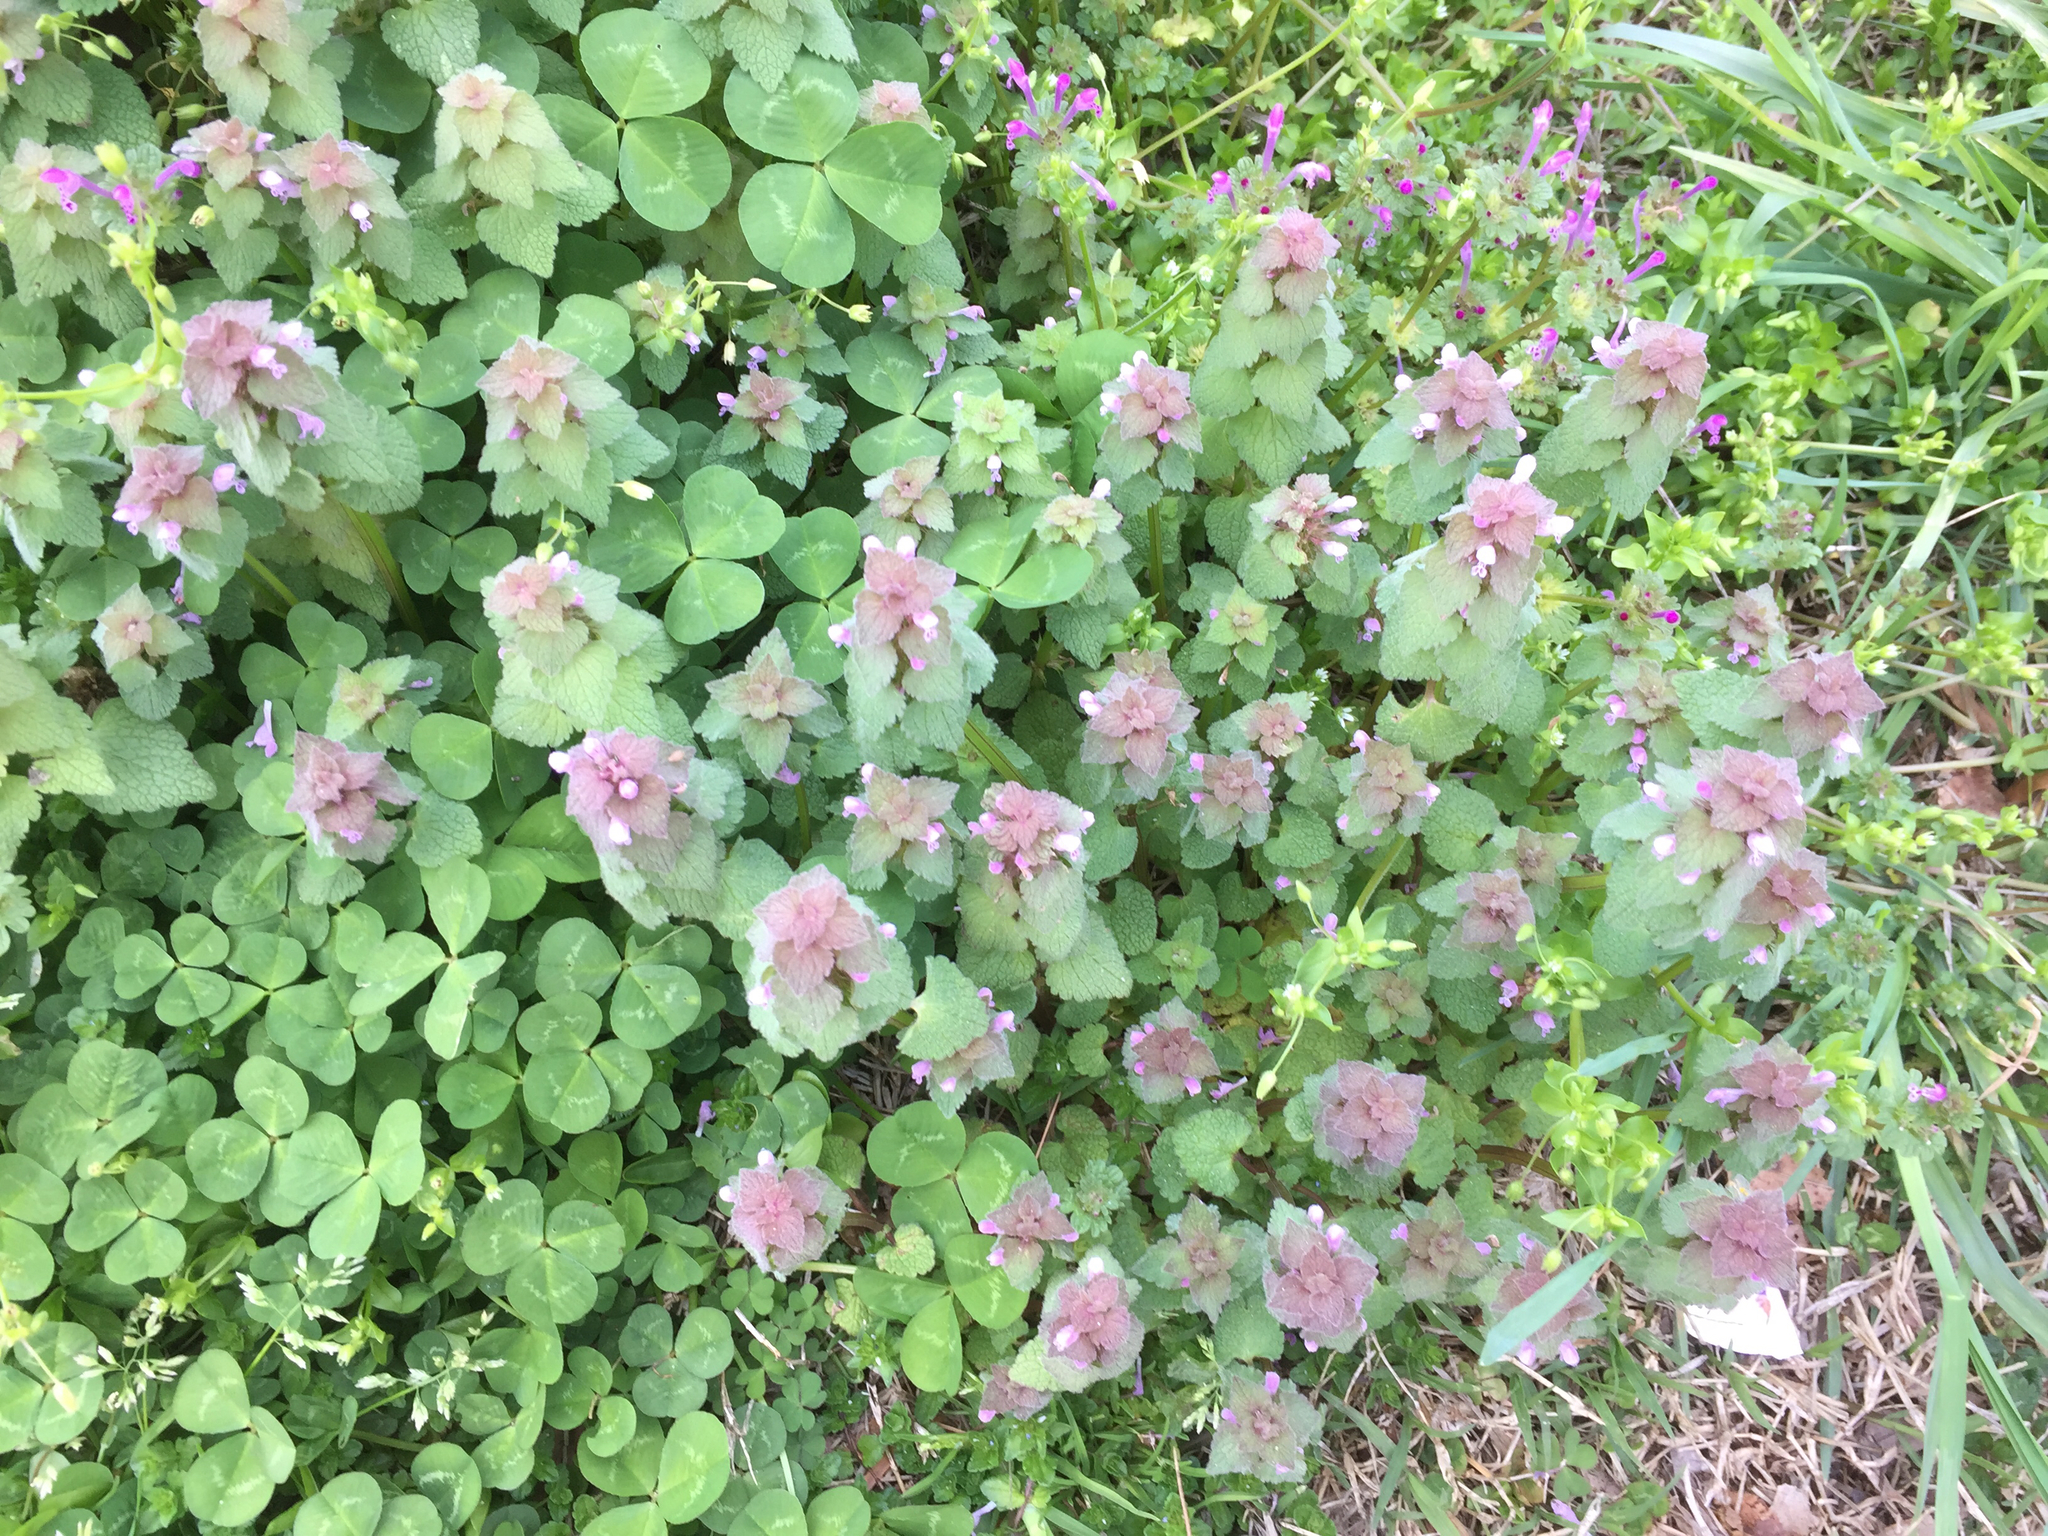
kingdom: Plantae
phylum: Tracheophyta
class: Magnoliopsida
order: Lamiales
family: Lamiaceae
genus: Lamium
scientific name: Lamium purpureum
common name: Red dead-nettle
